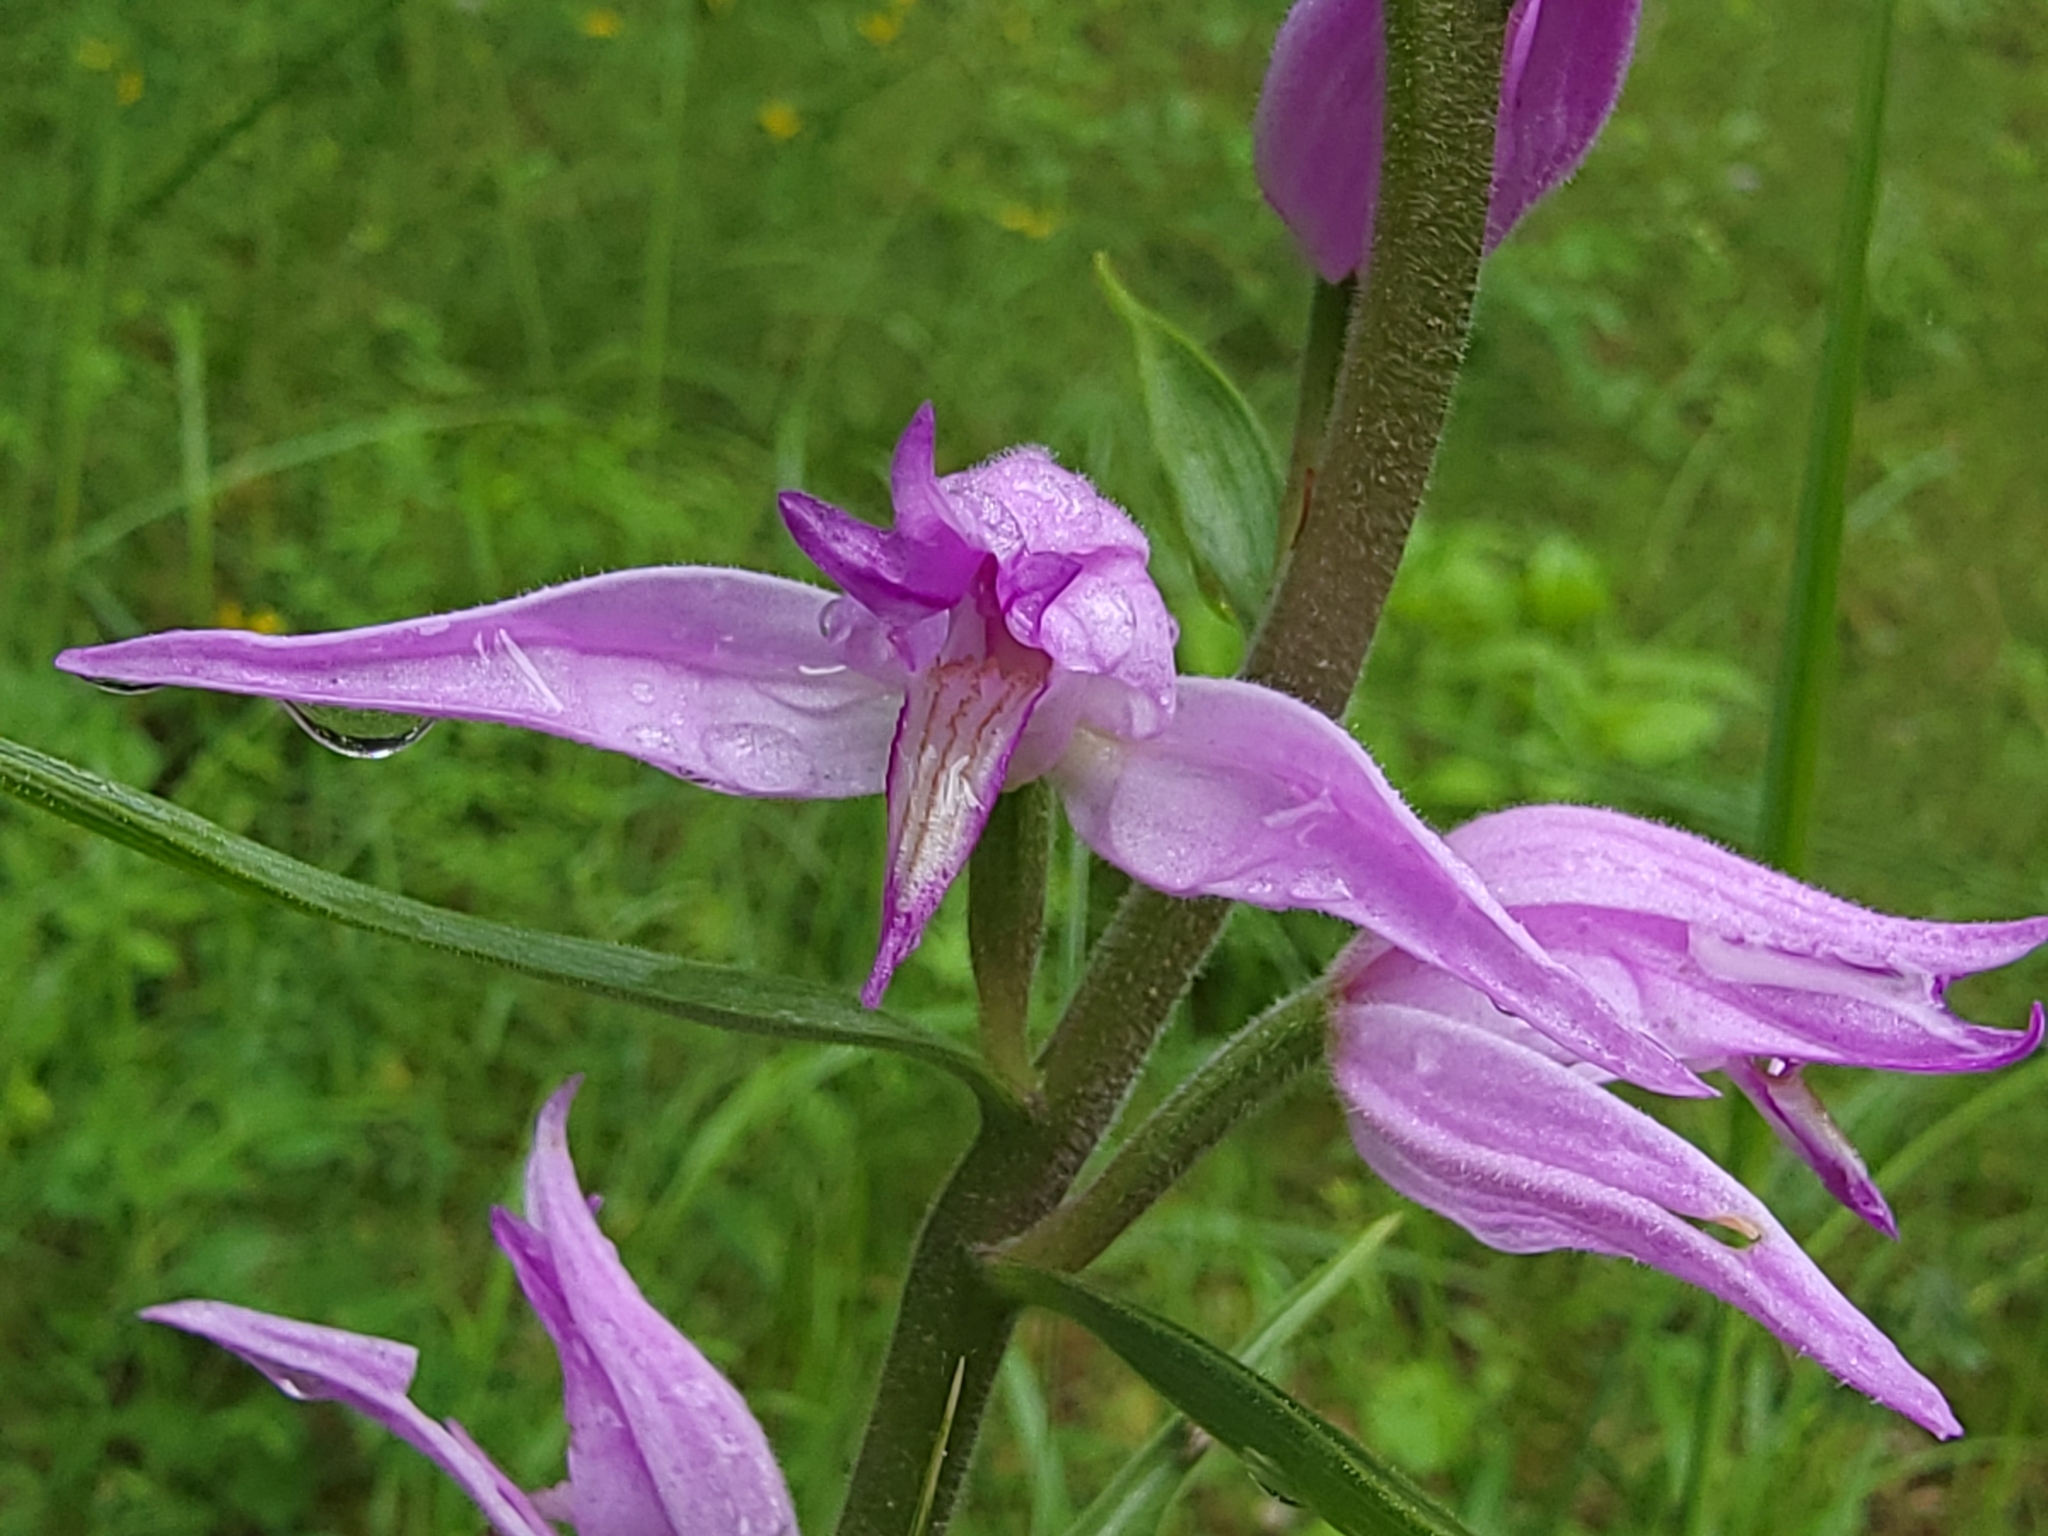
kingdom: Plantae
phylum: Tracheophyta
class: Liliopsida
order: Asparagales
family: Orchidaceae
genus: Cephalanthera
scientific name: Cephalanthera rubra
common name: Red helleborine
